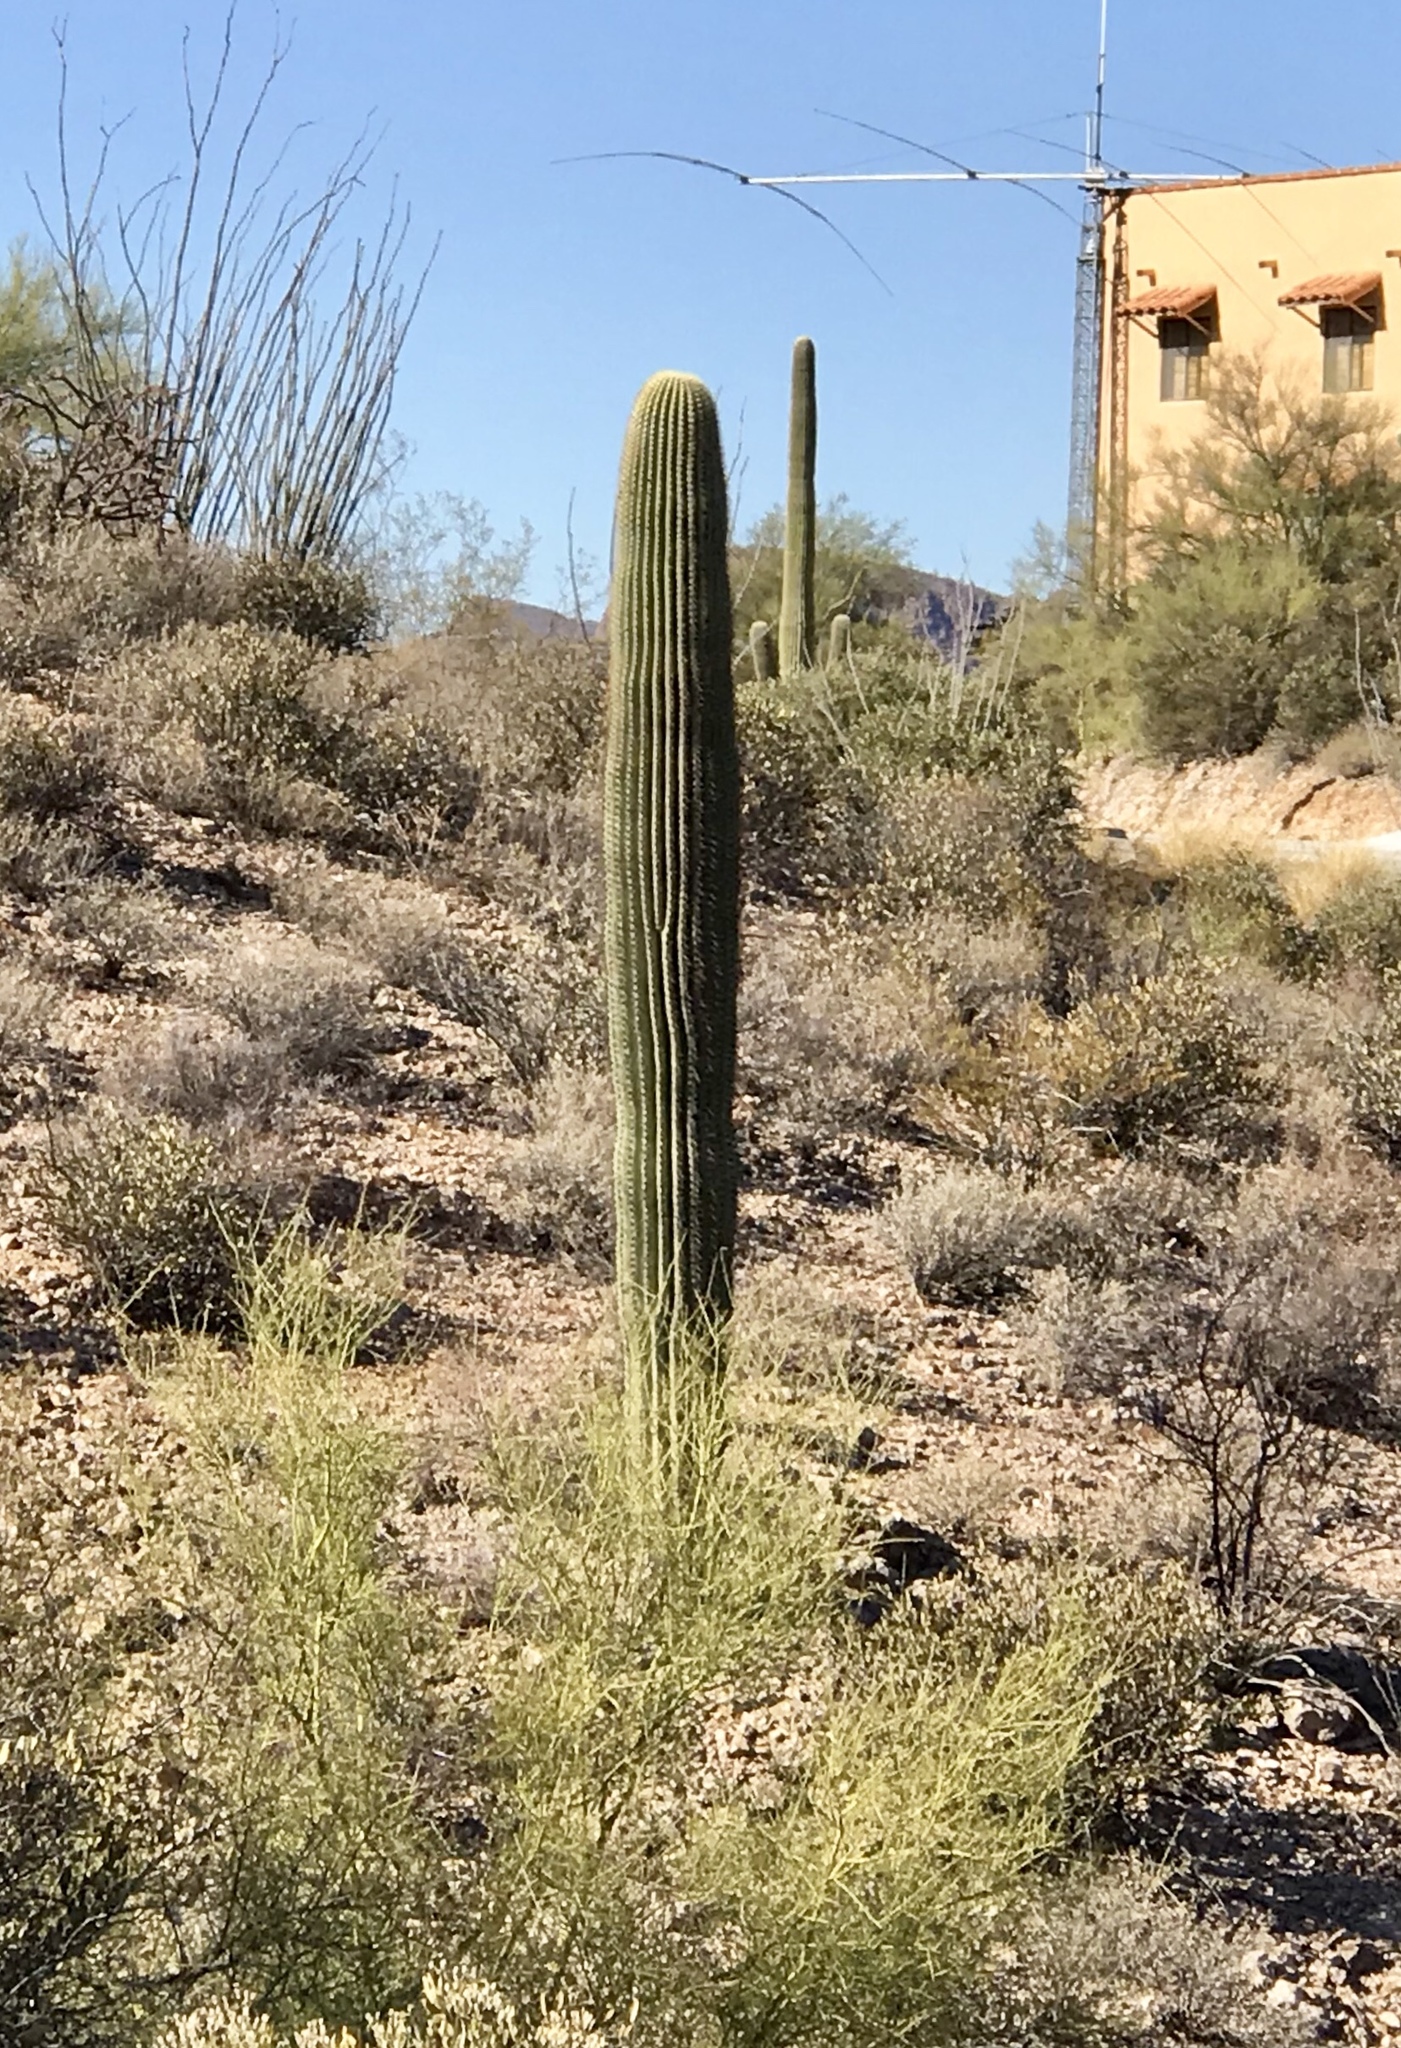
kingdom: Plantae
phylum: Tracheophyta
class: Magnoliopsida
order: Caryophyllales
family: Cactaceae
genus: Carnegiea
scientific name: Carnegiea gigantea
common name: Saguaro
